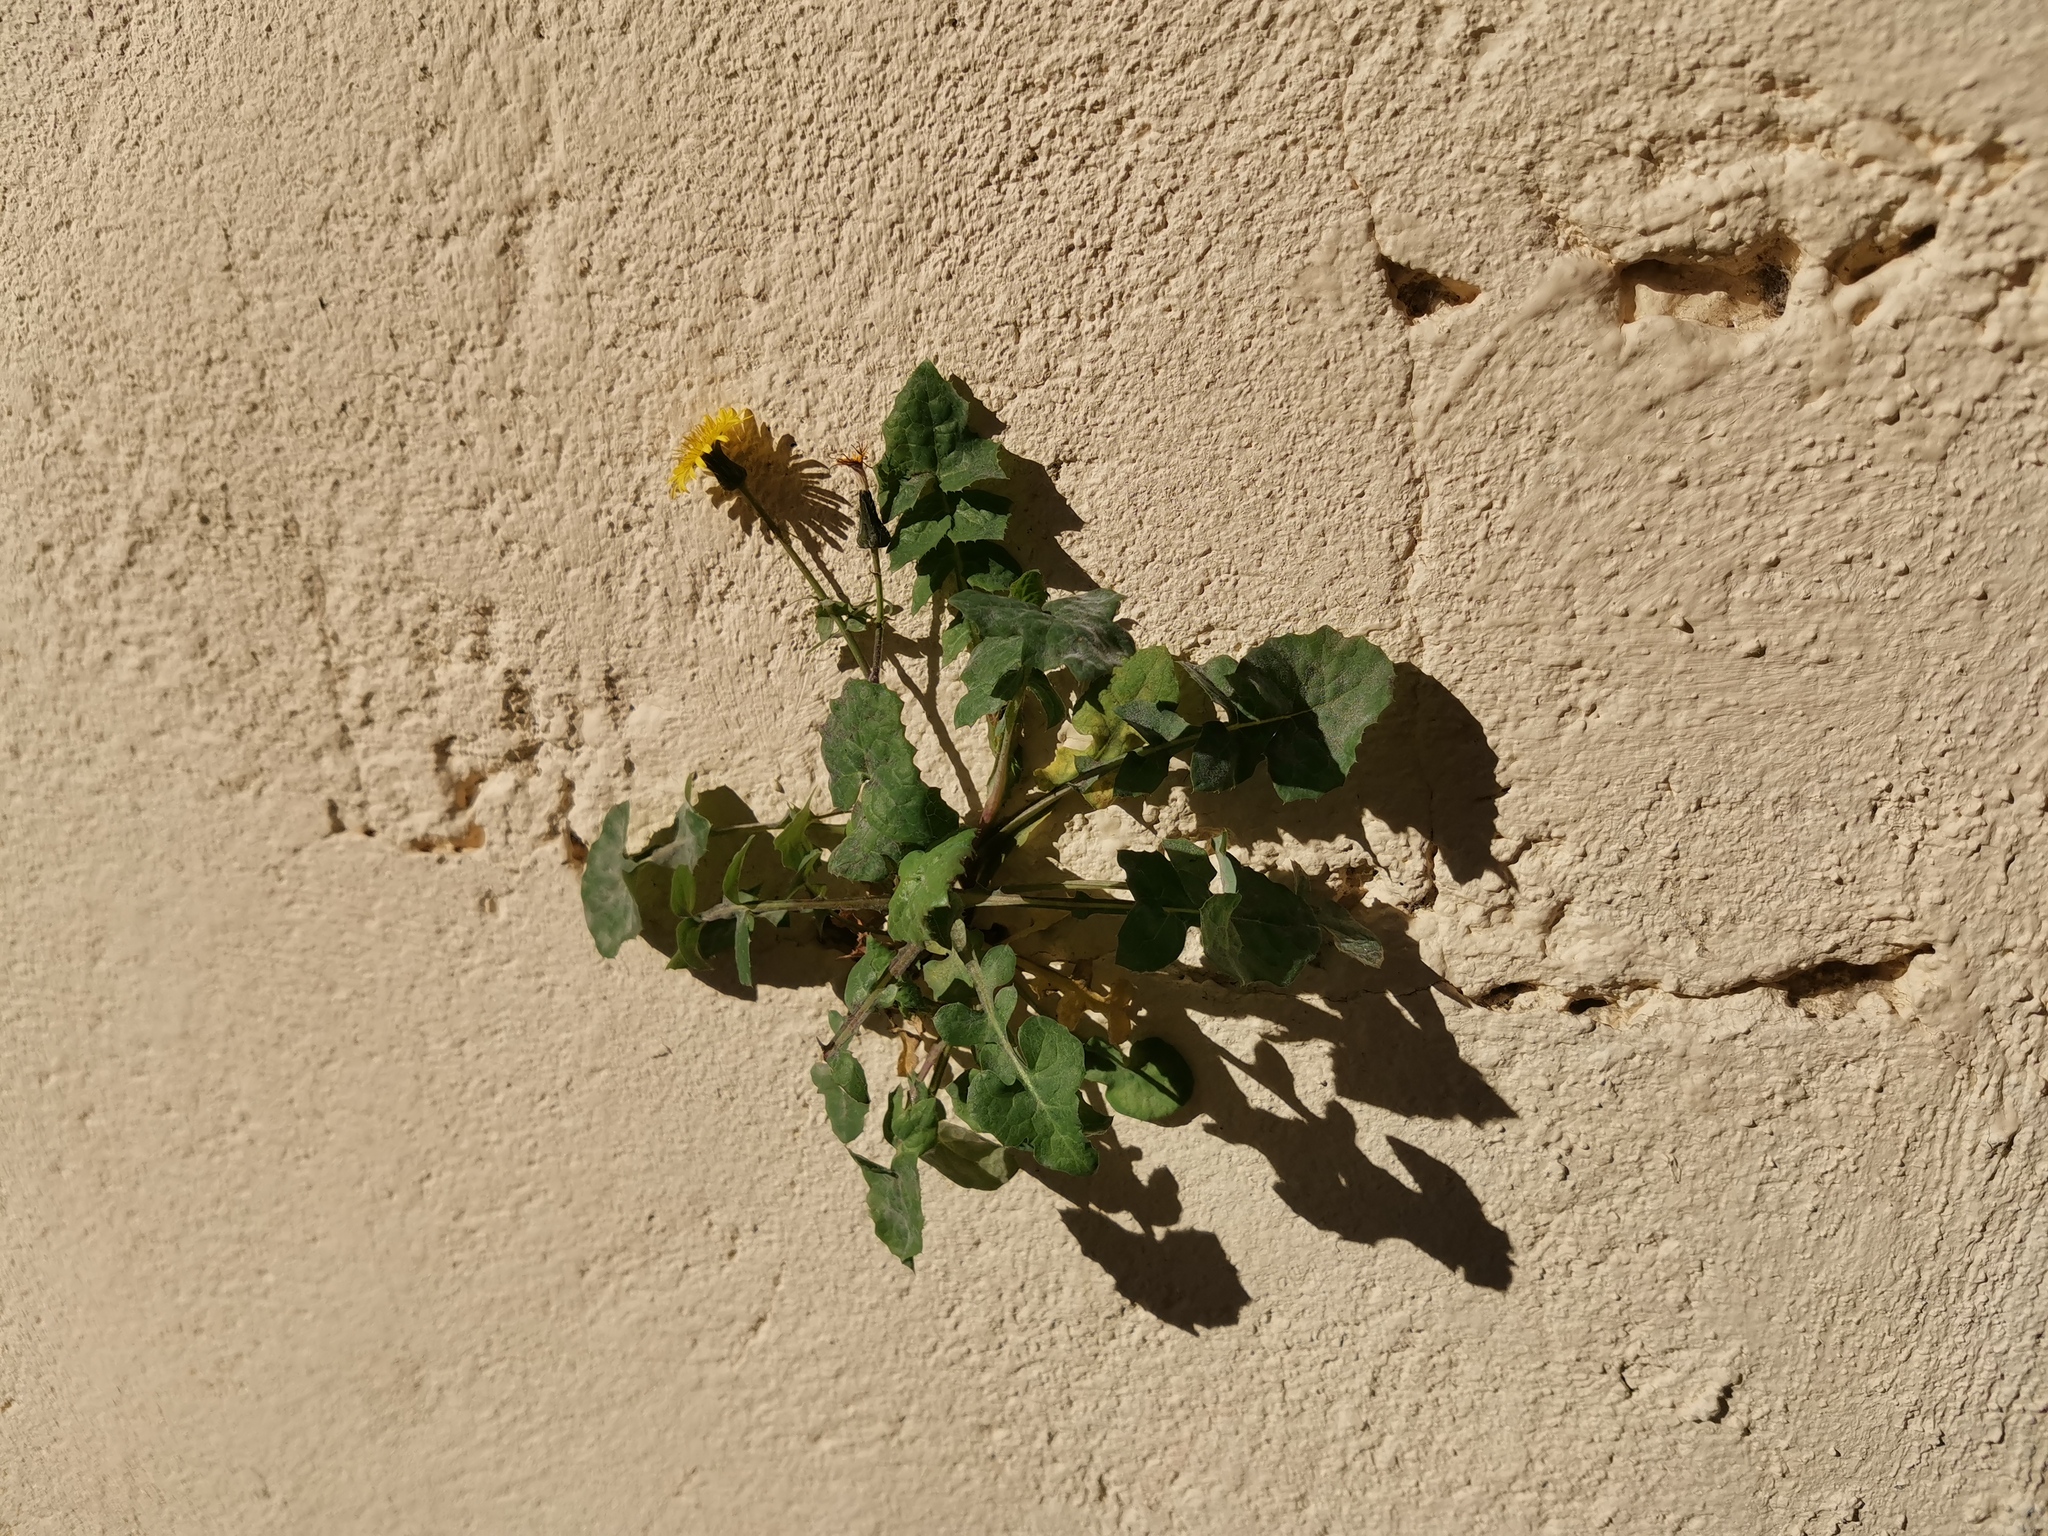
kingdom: Plantae
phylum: Tracheophyta
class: Magnoliopsida
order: Asterales
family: Asteraceae
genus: Sonchus
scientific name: Sonchus oleraceus
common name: Common sowthistle
